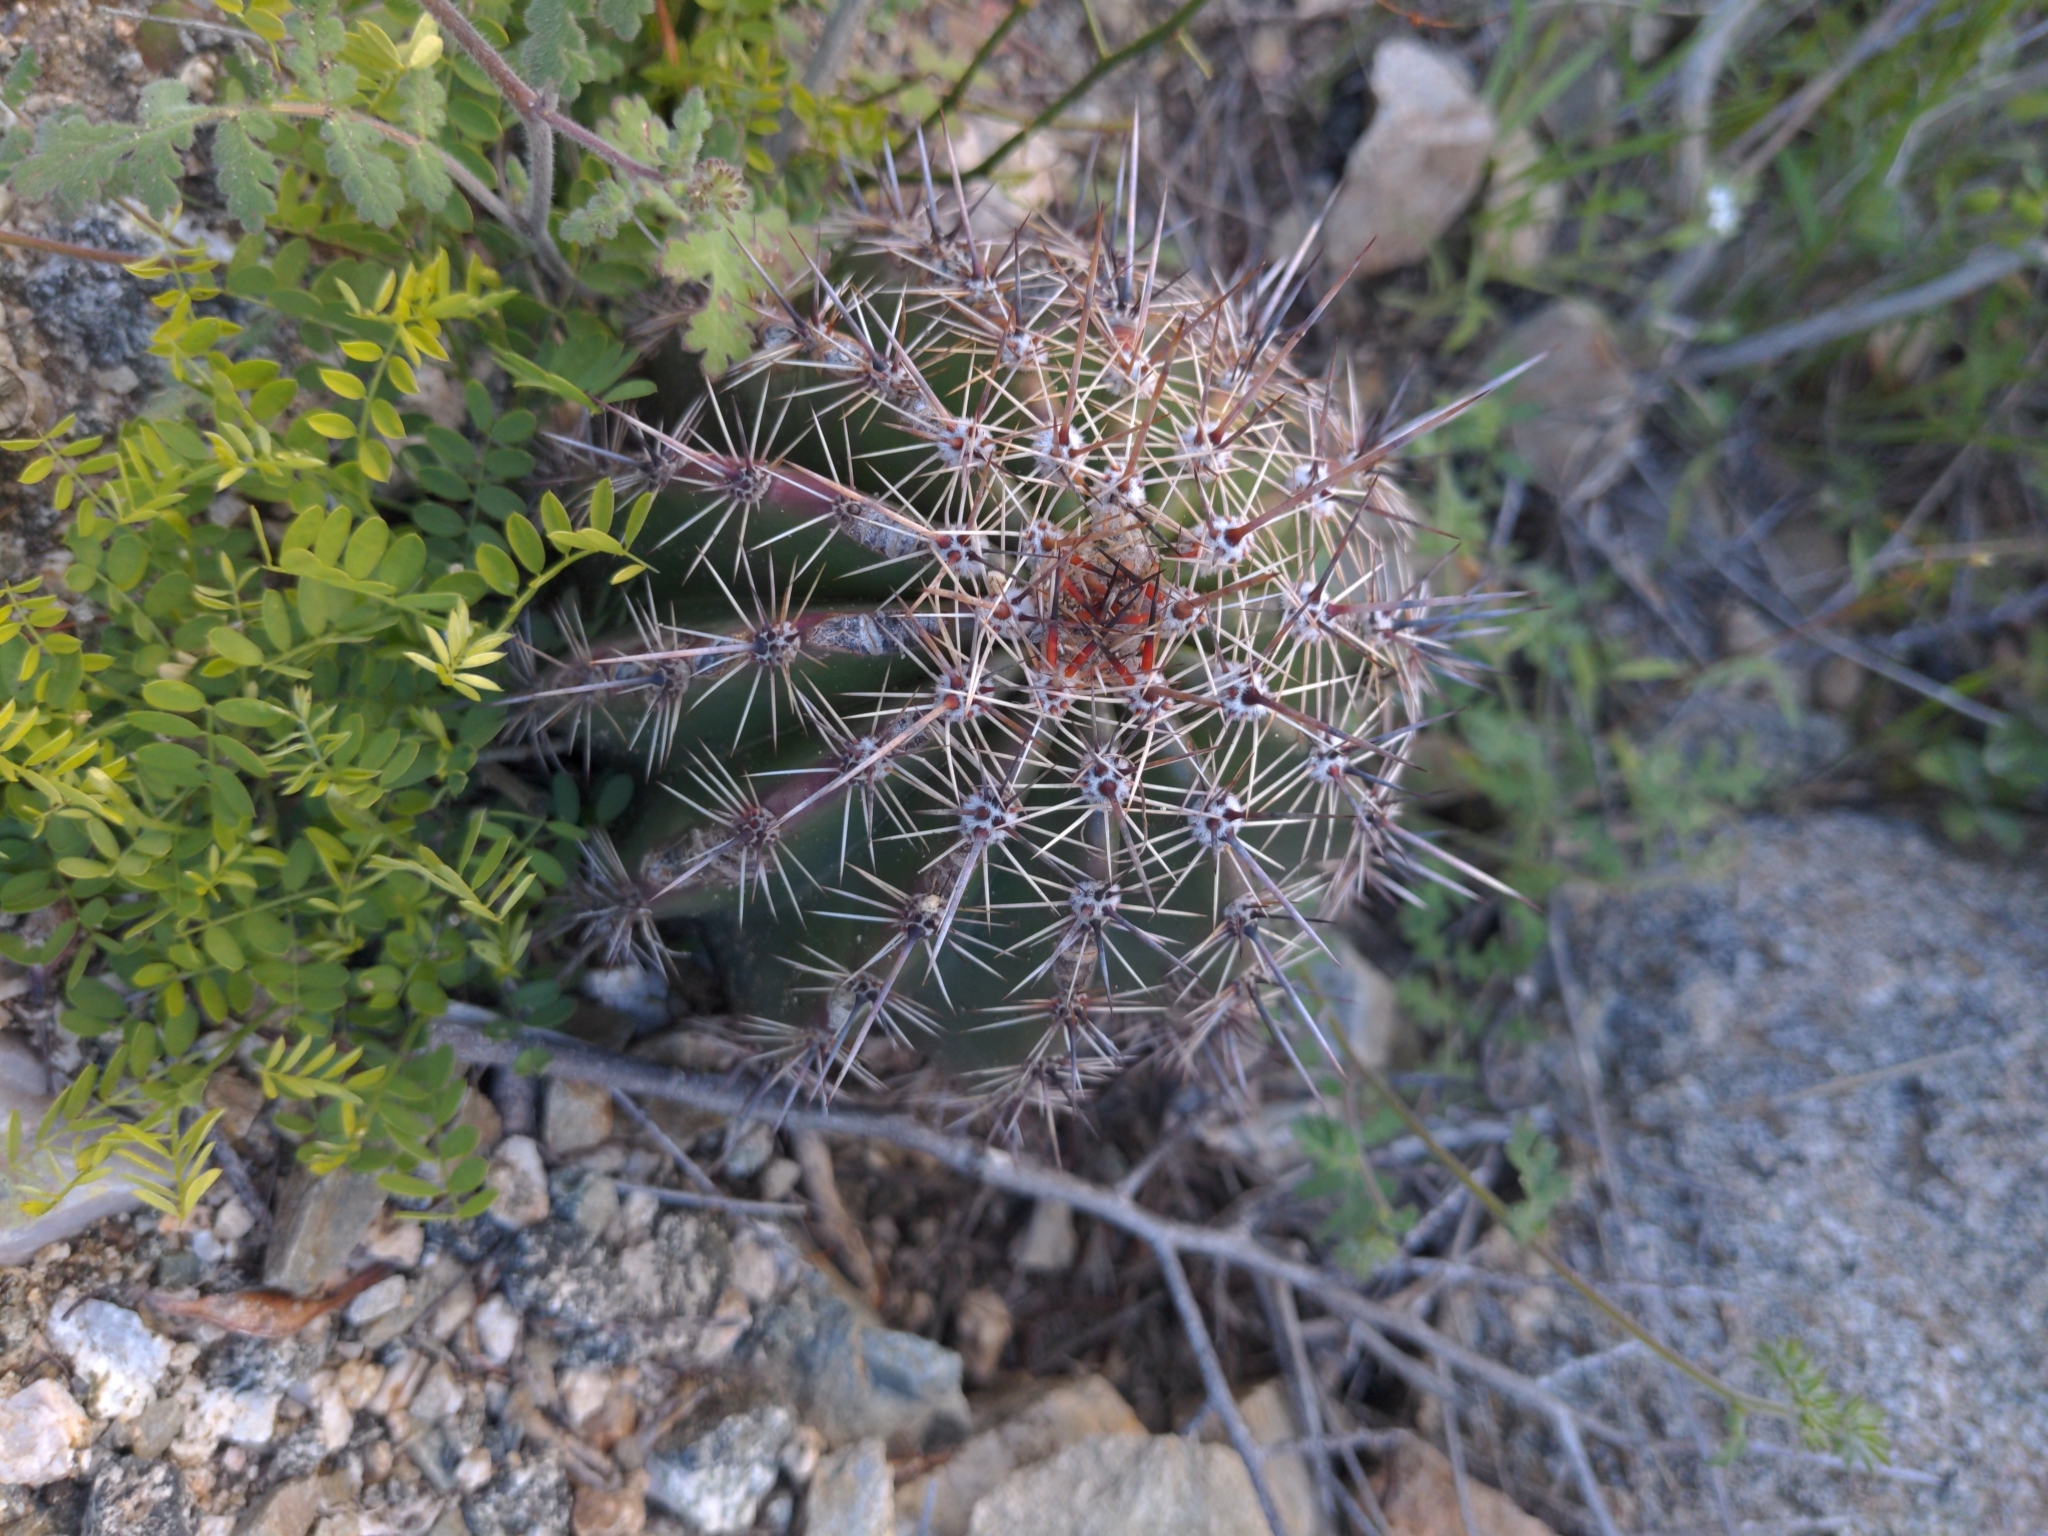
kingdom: Plantae
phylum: Tracheophyta
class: Magnoliopsida
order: Caryophyllales
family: Cactaceae
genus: Carnegiea
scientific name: Carnegiea gigantea
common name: Saguaro
